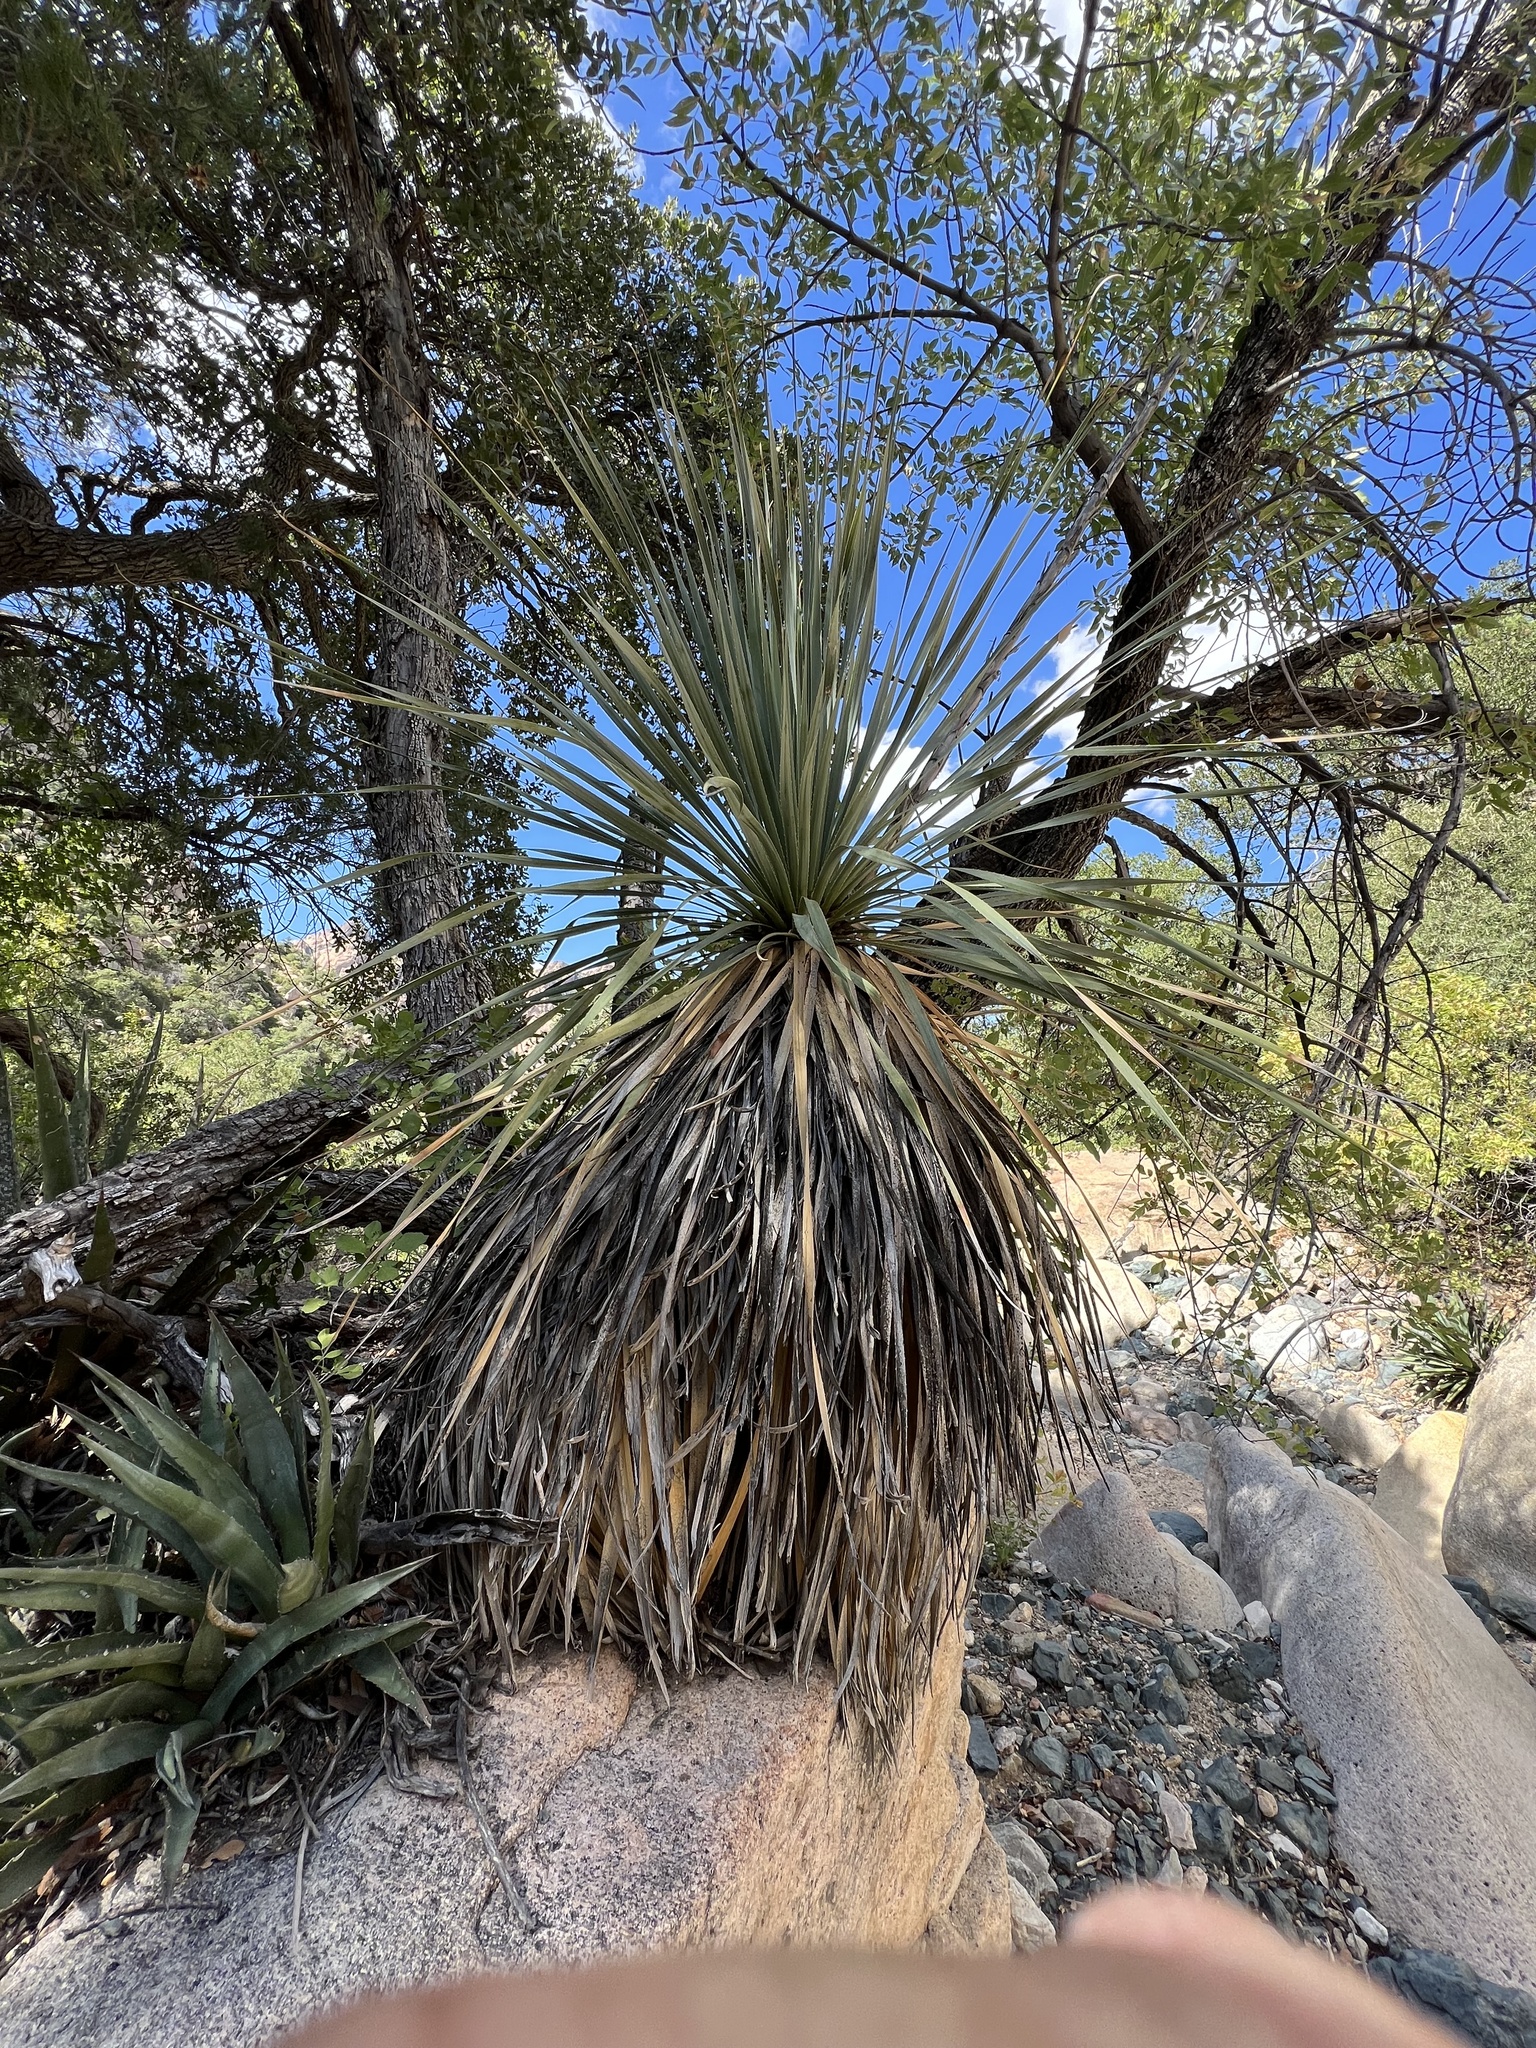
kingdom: Plantae
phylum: Tracheophyta
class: Liliopsida
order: Asparagales
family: Asparagaceae
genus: Dasylirion
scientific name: Dasylirion wheeleri
